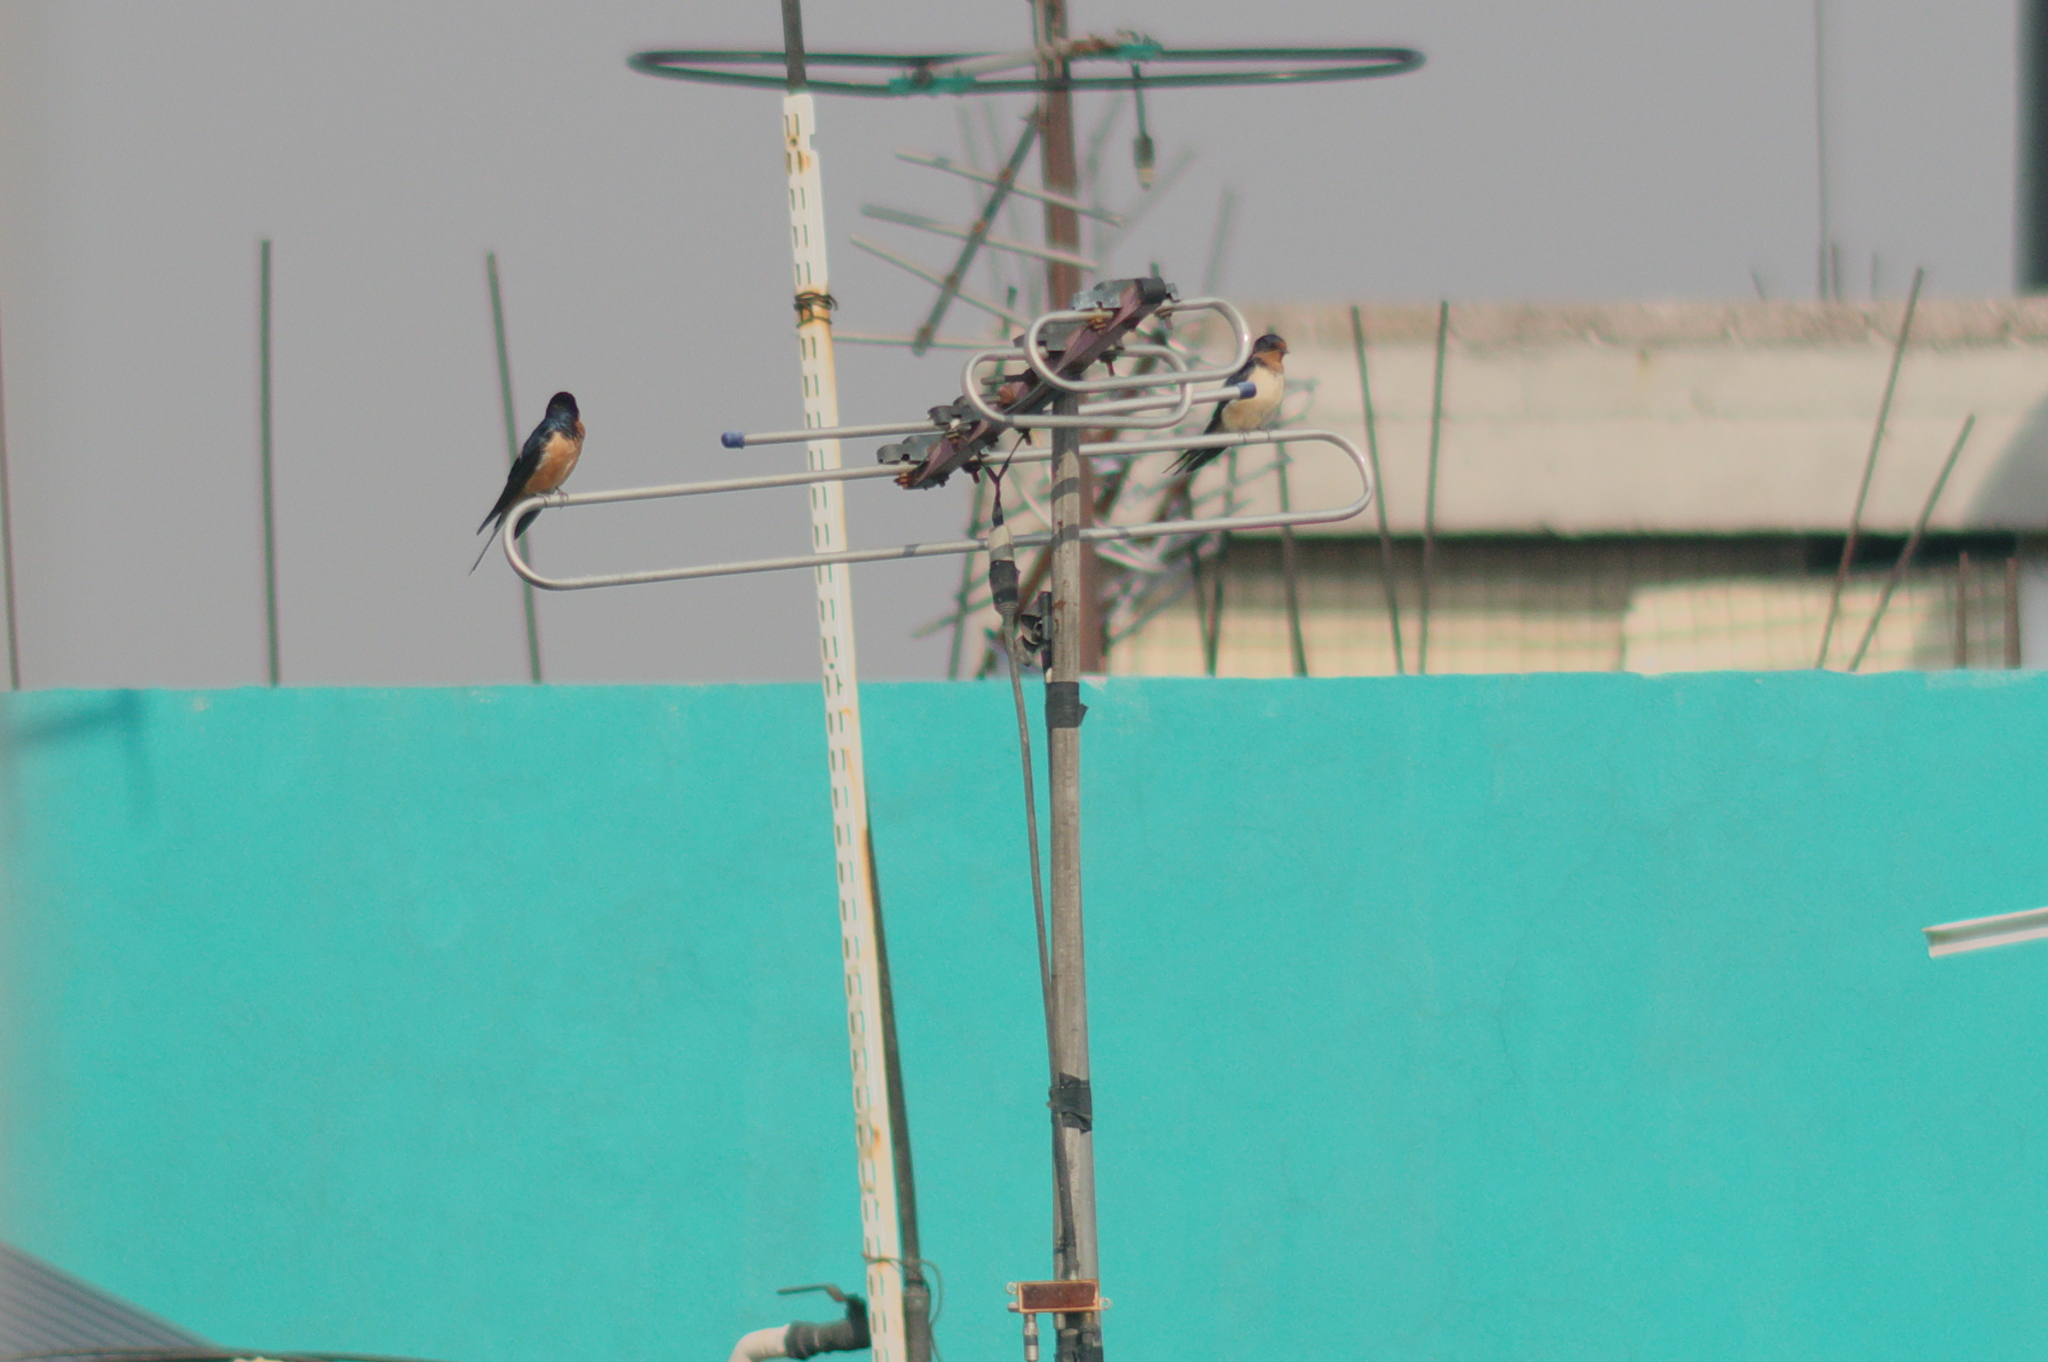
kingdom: Animalia
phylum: Chordata
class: Aves
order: Passeriformes
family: Hirundinidae
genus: Hirundo
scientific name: Hirundo rustica
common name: Barn swallow
